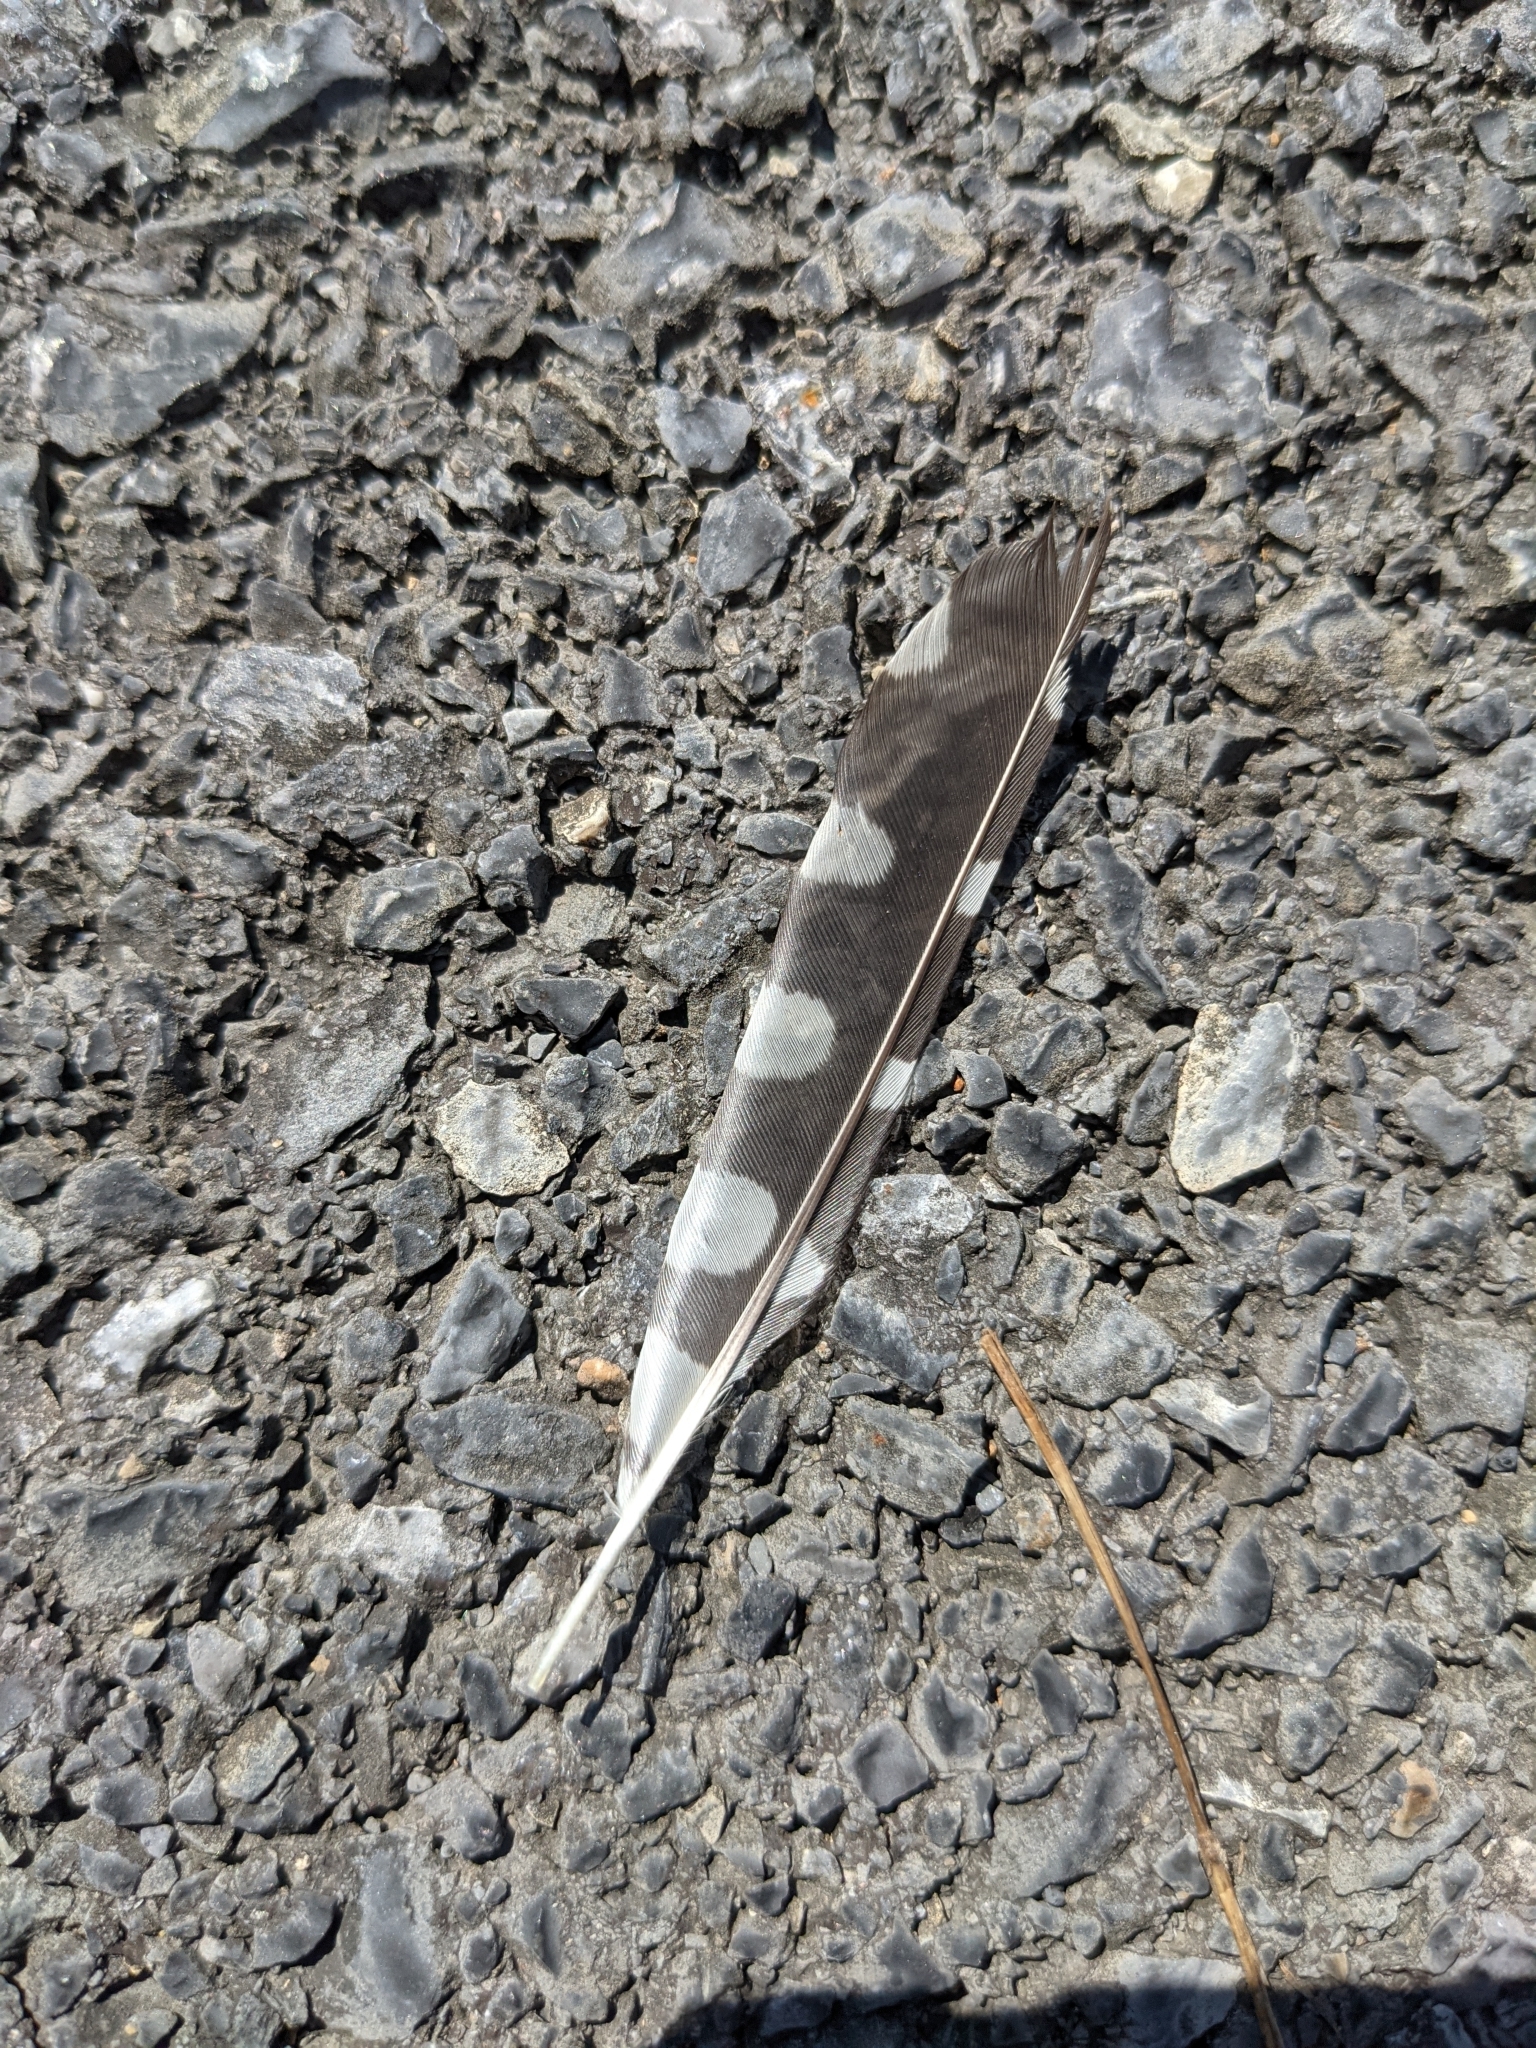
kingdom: Animalia
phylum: Chordata
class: Aves
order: Piciformes
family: Picidae
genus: Dryobates
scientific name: Dryobates pubescens
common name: Downy woodpecker
